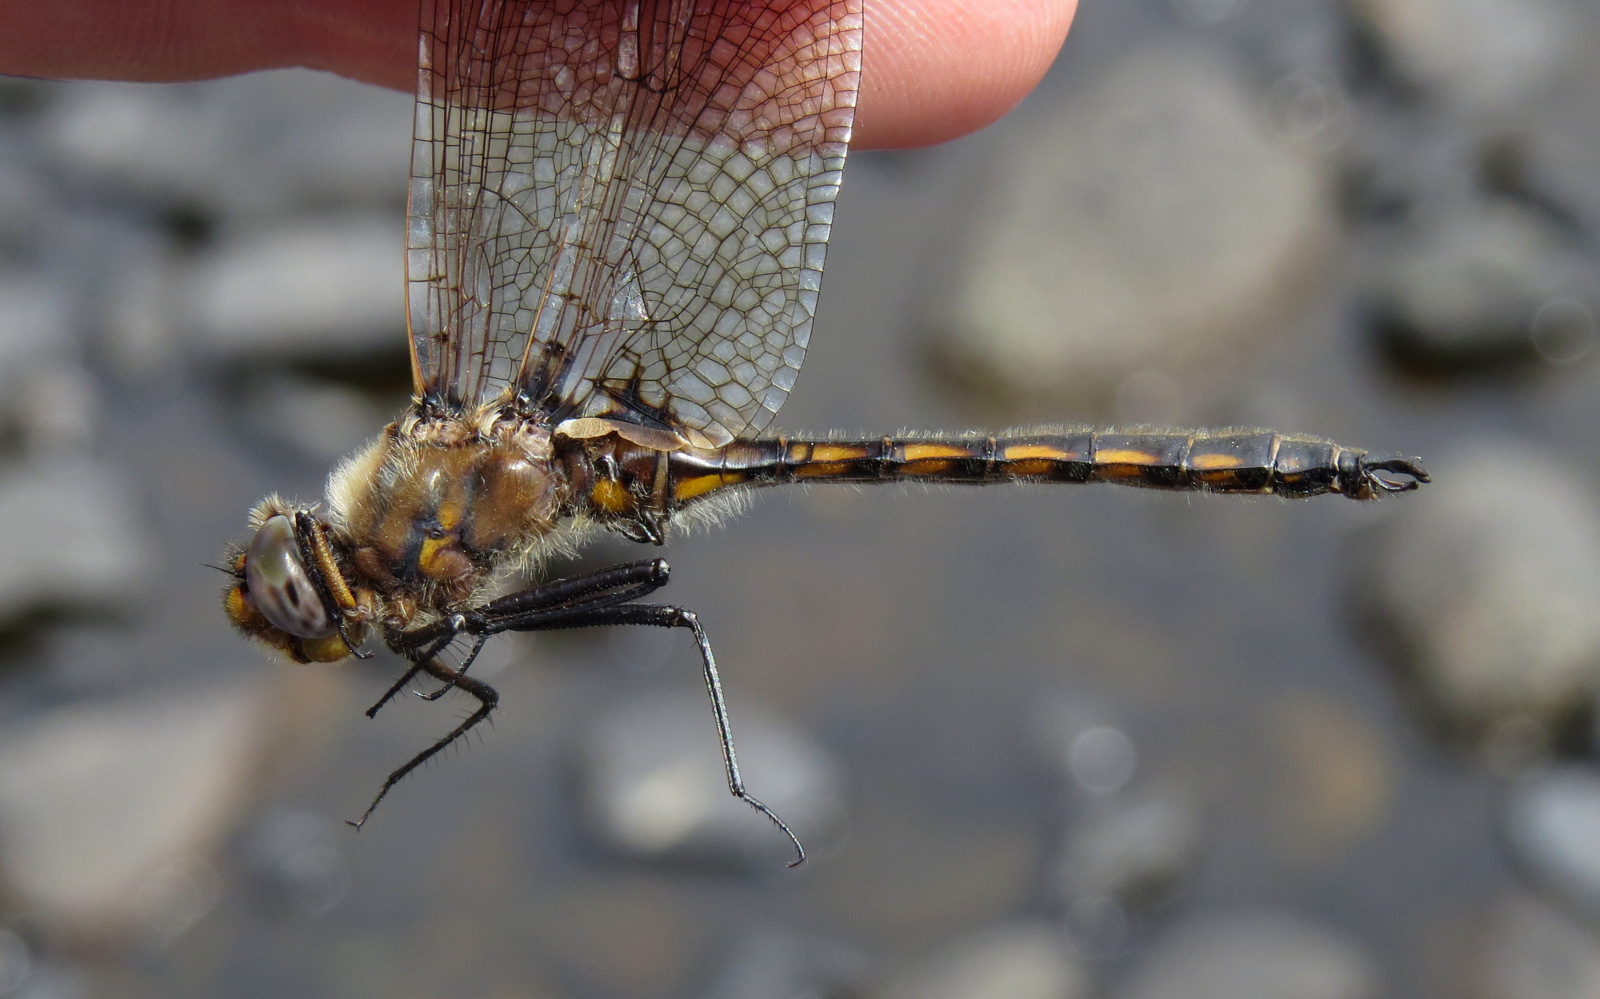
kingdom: Animalia
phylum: Arthropoda
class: Insecta
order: Odonata
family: Corduliidae
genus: Epitheca
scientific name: Epitheca canis
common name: Beaverpond baskettail
